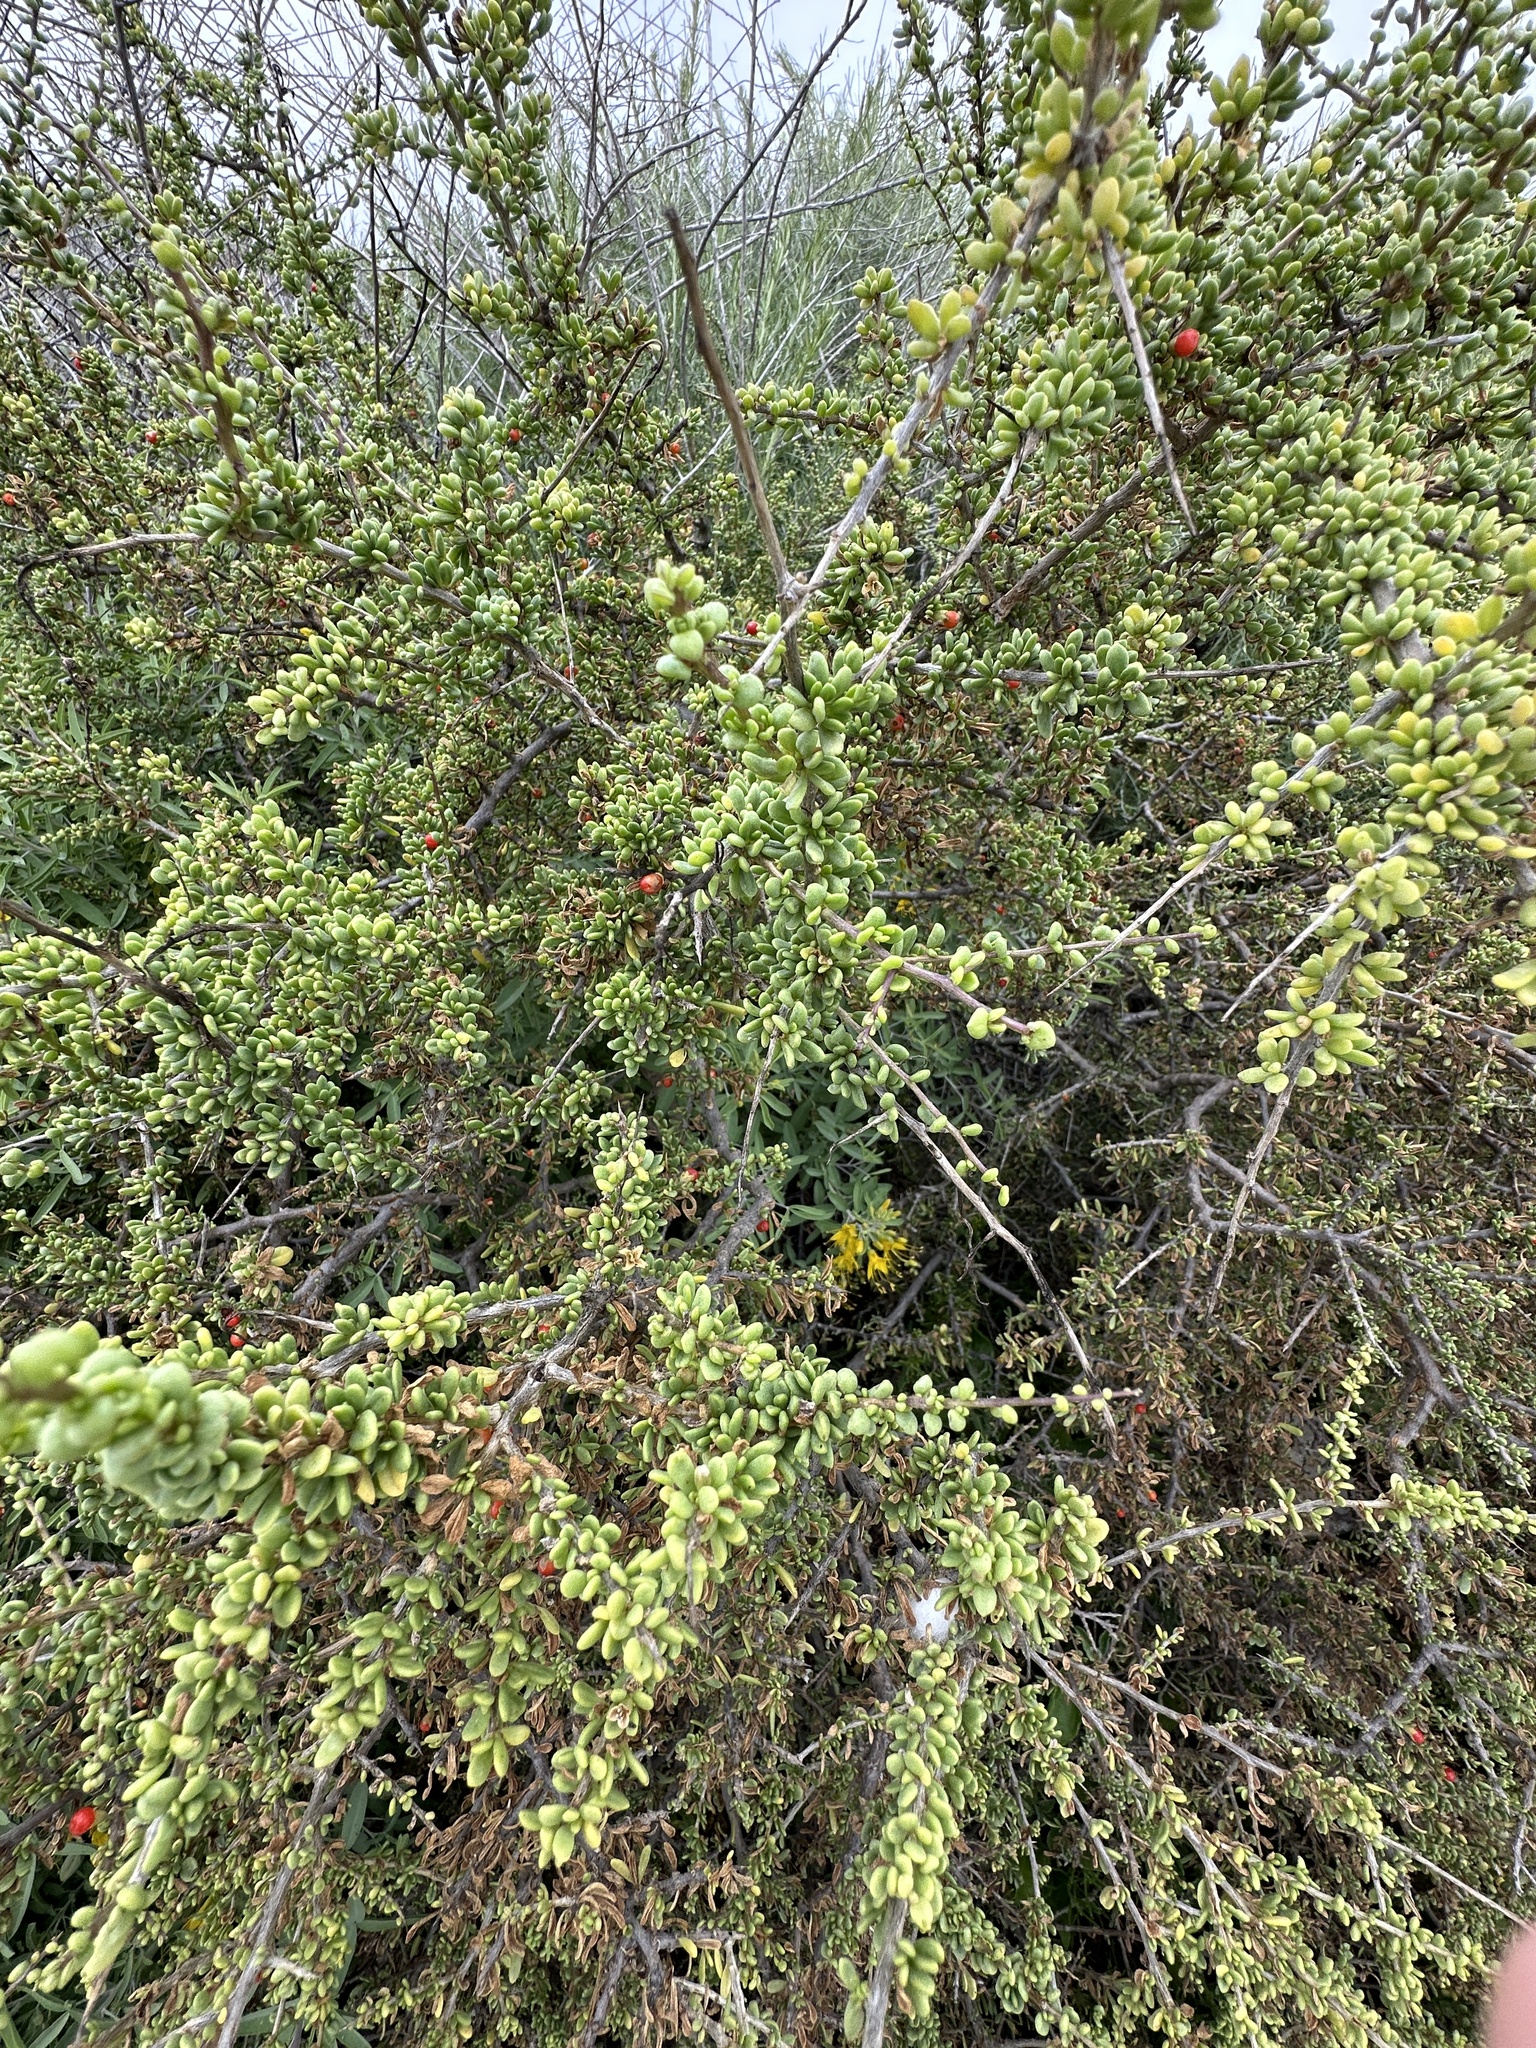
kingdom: Plantae
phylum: Tracheophyta
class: Magnoliopsida
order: Solanales
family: Solanaceae
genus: Lycium
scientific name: Lycium californicum
